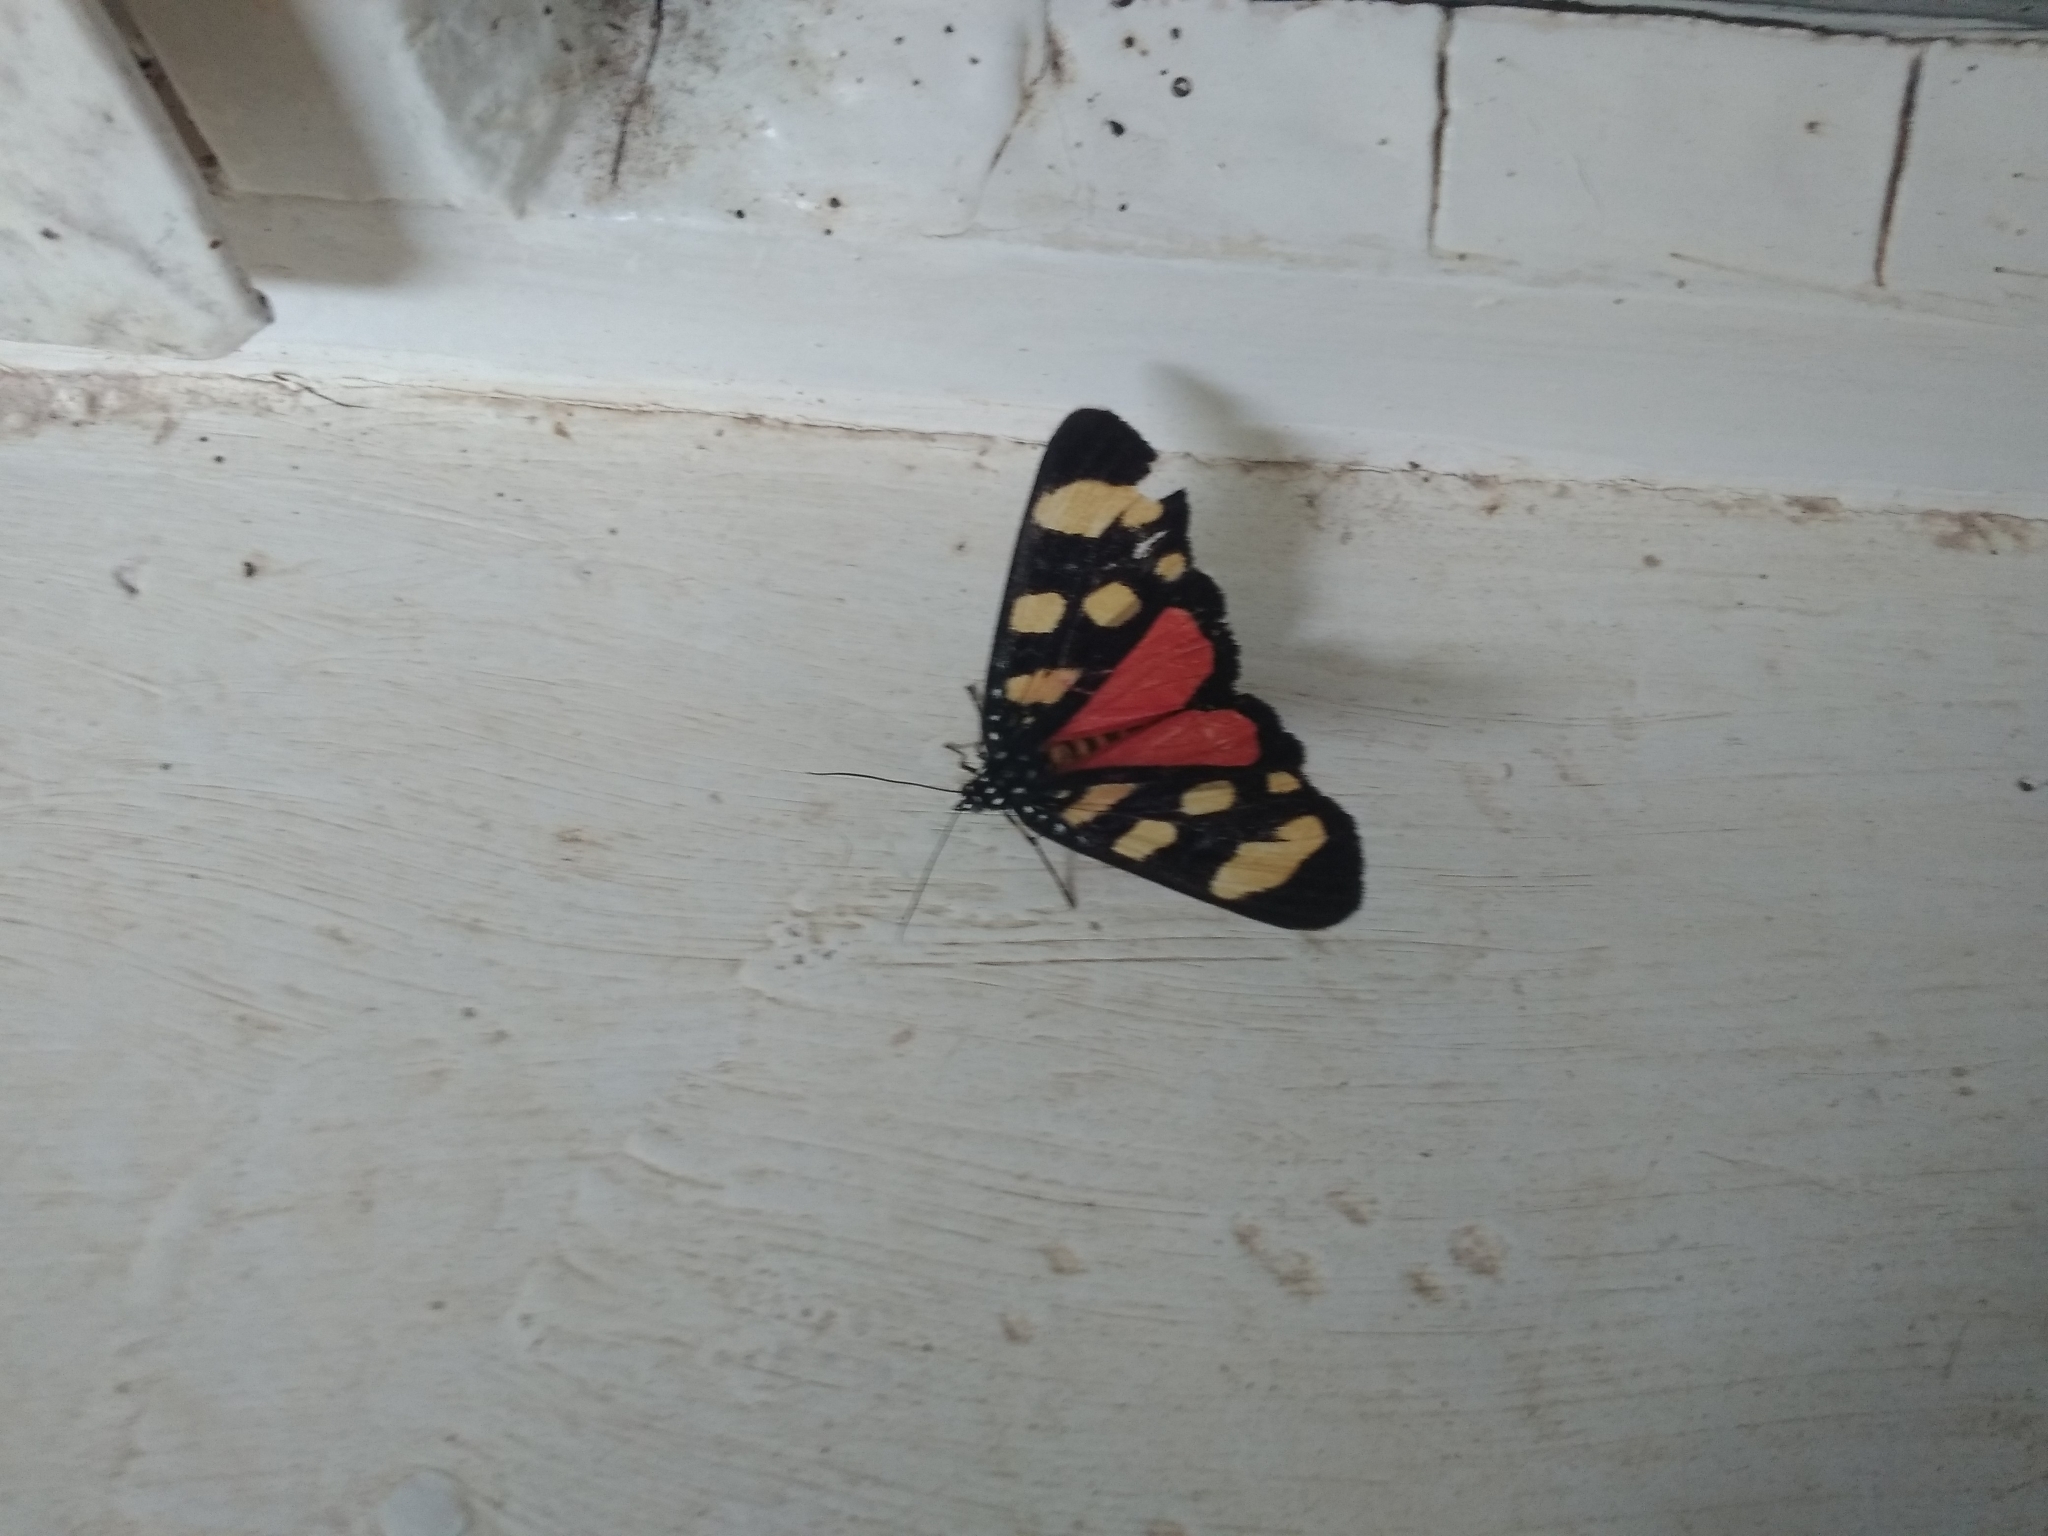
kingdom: Animalia
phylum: Arthropoda
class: Insecta
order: Lepidoptera
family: Noctuidae
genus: Heraclia
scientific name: Heraclia africana
